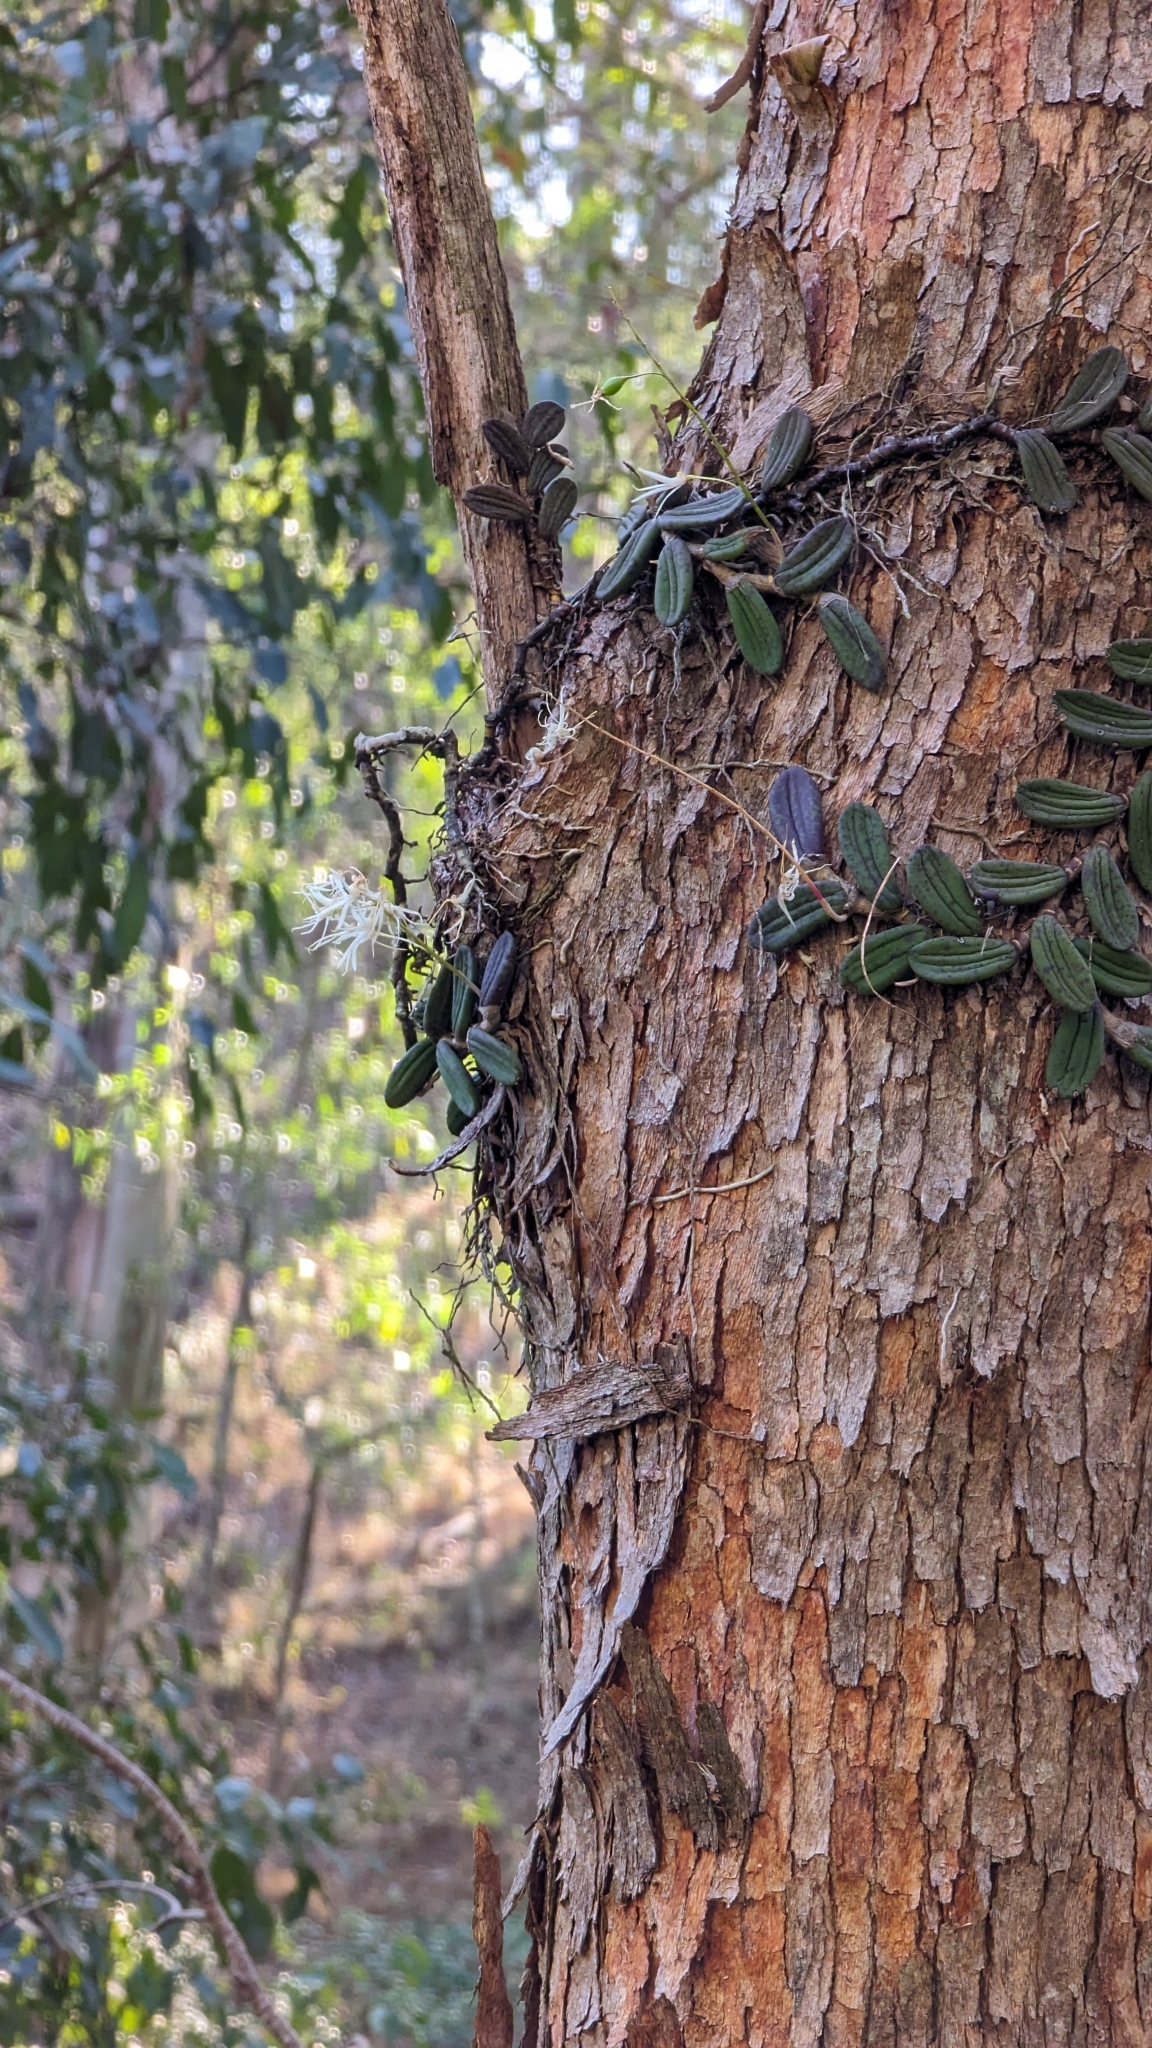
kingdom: Plantae
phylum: Tracheophyta
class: Liliopsida
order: Asparagales
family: Orchidaceae
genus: Dendrobium
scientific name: Dendrobium linguiforme
